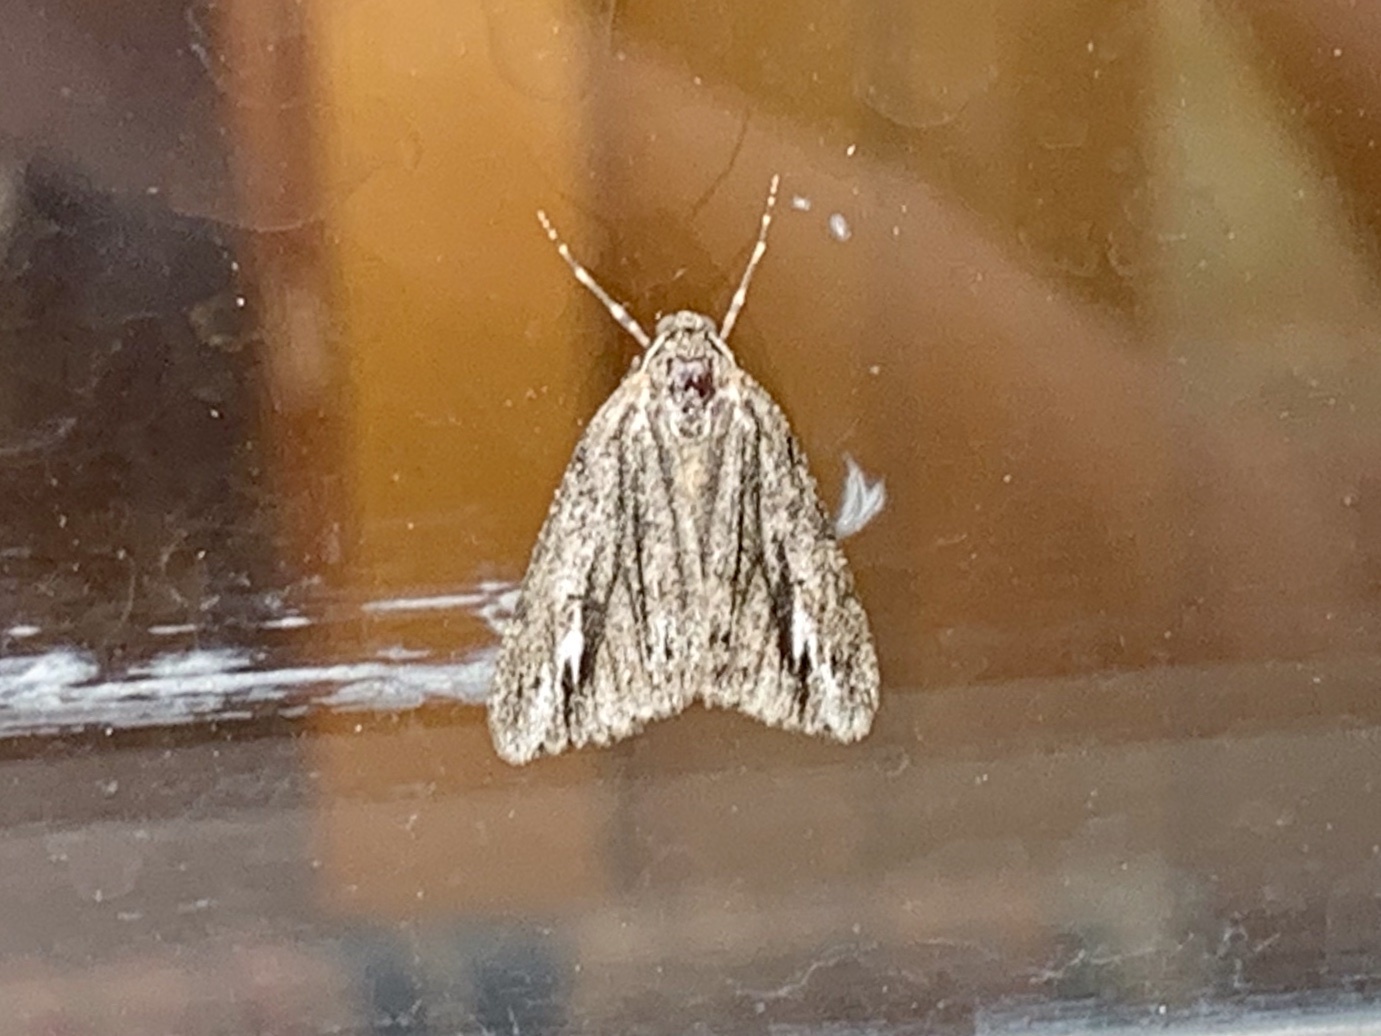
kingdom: Animalia
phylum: Arthropoda
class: Insecta
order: Lepidoptera
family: Geometridae
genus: Carphoides
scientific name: Carphoides incopriarius
